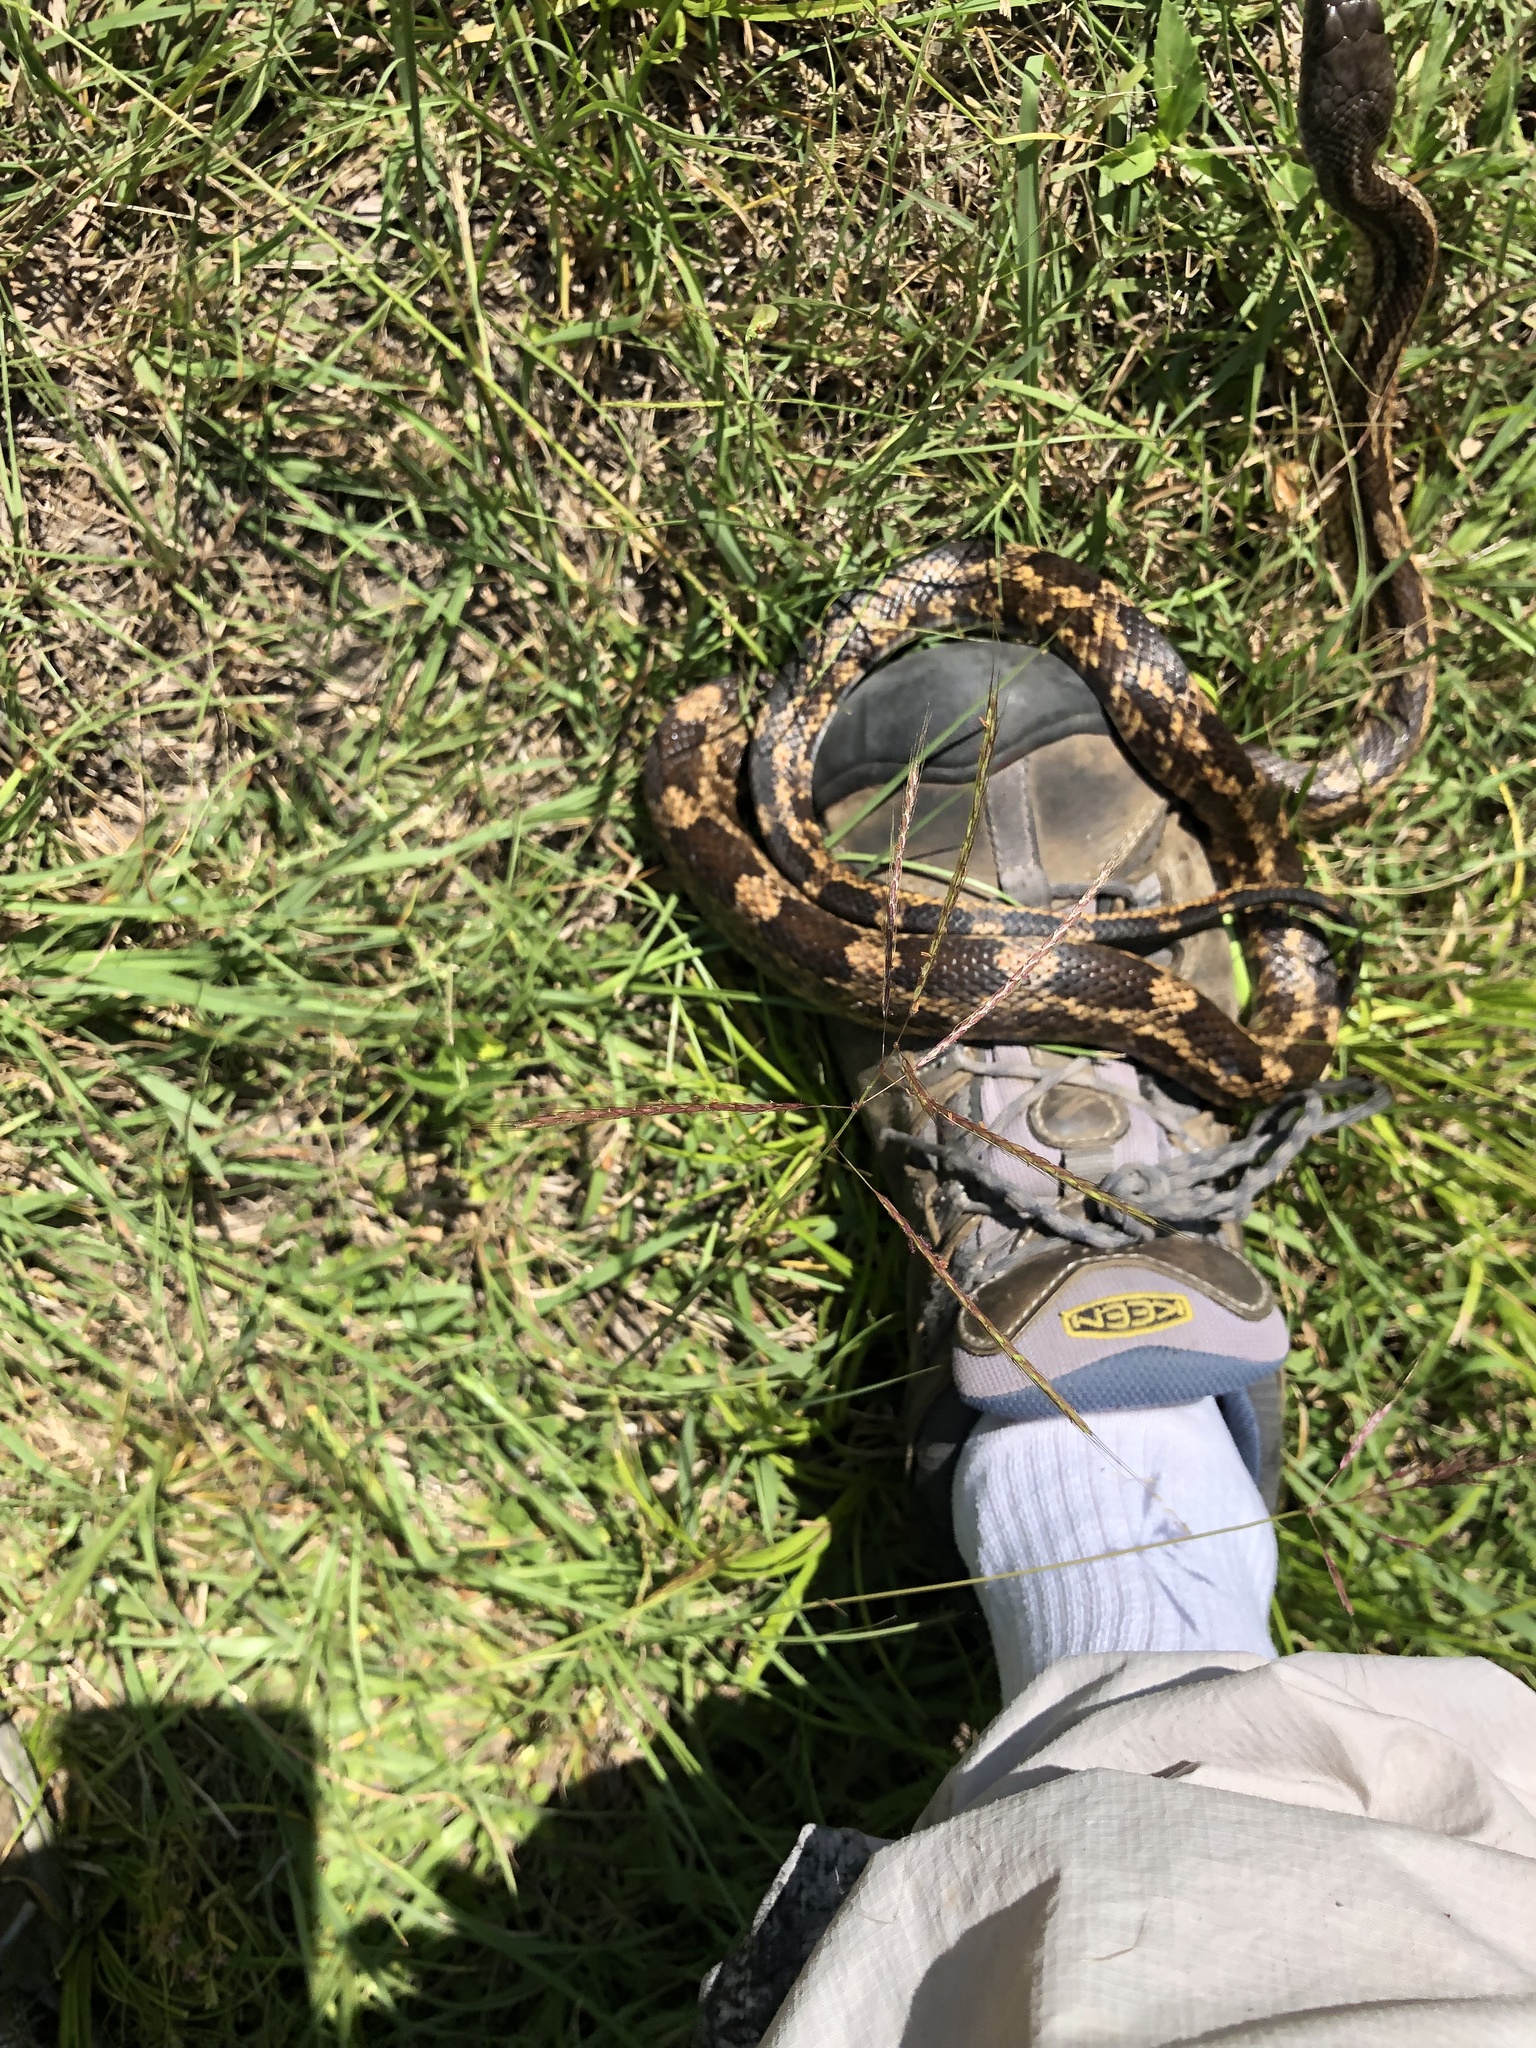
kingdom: Animalia
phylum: Chordata
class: Squamata
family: Colubridae
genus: Pantherophis
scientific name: Pantherophis obsoletus
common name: Black rat snake
